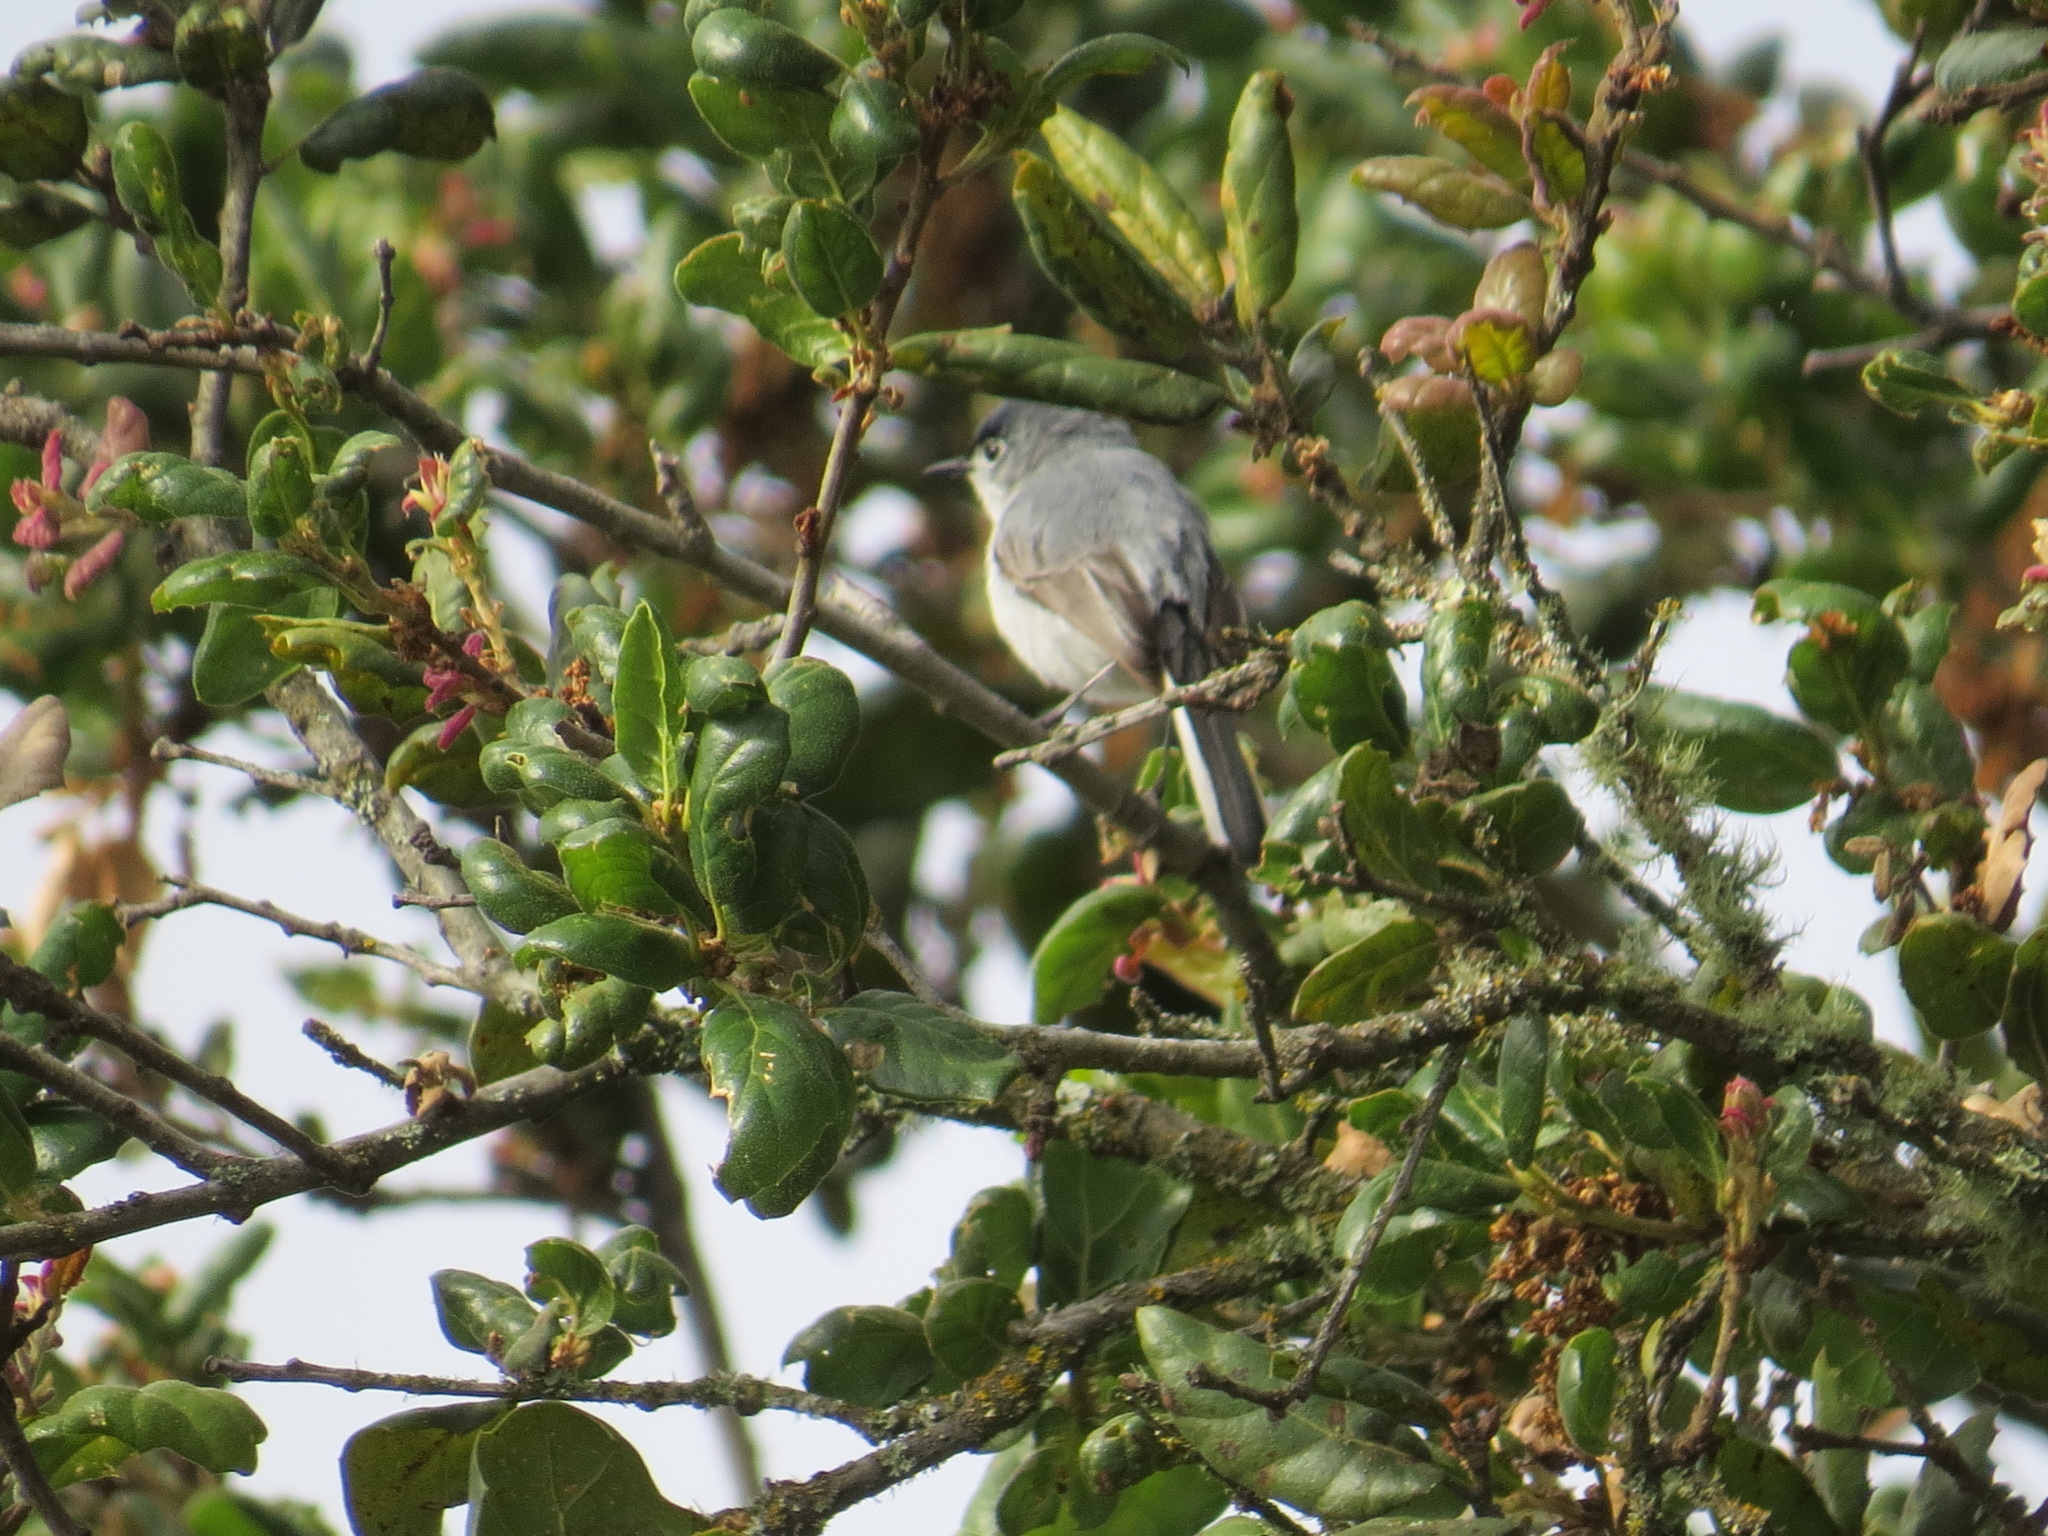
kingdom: Animalia
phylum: Chordata
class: Aves
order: Passeriformes
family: Polioptilidae
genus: Polioptila
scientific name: Polioptila caerulea
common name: Blue-gray gnatcatcher
